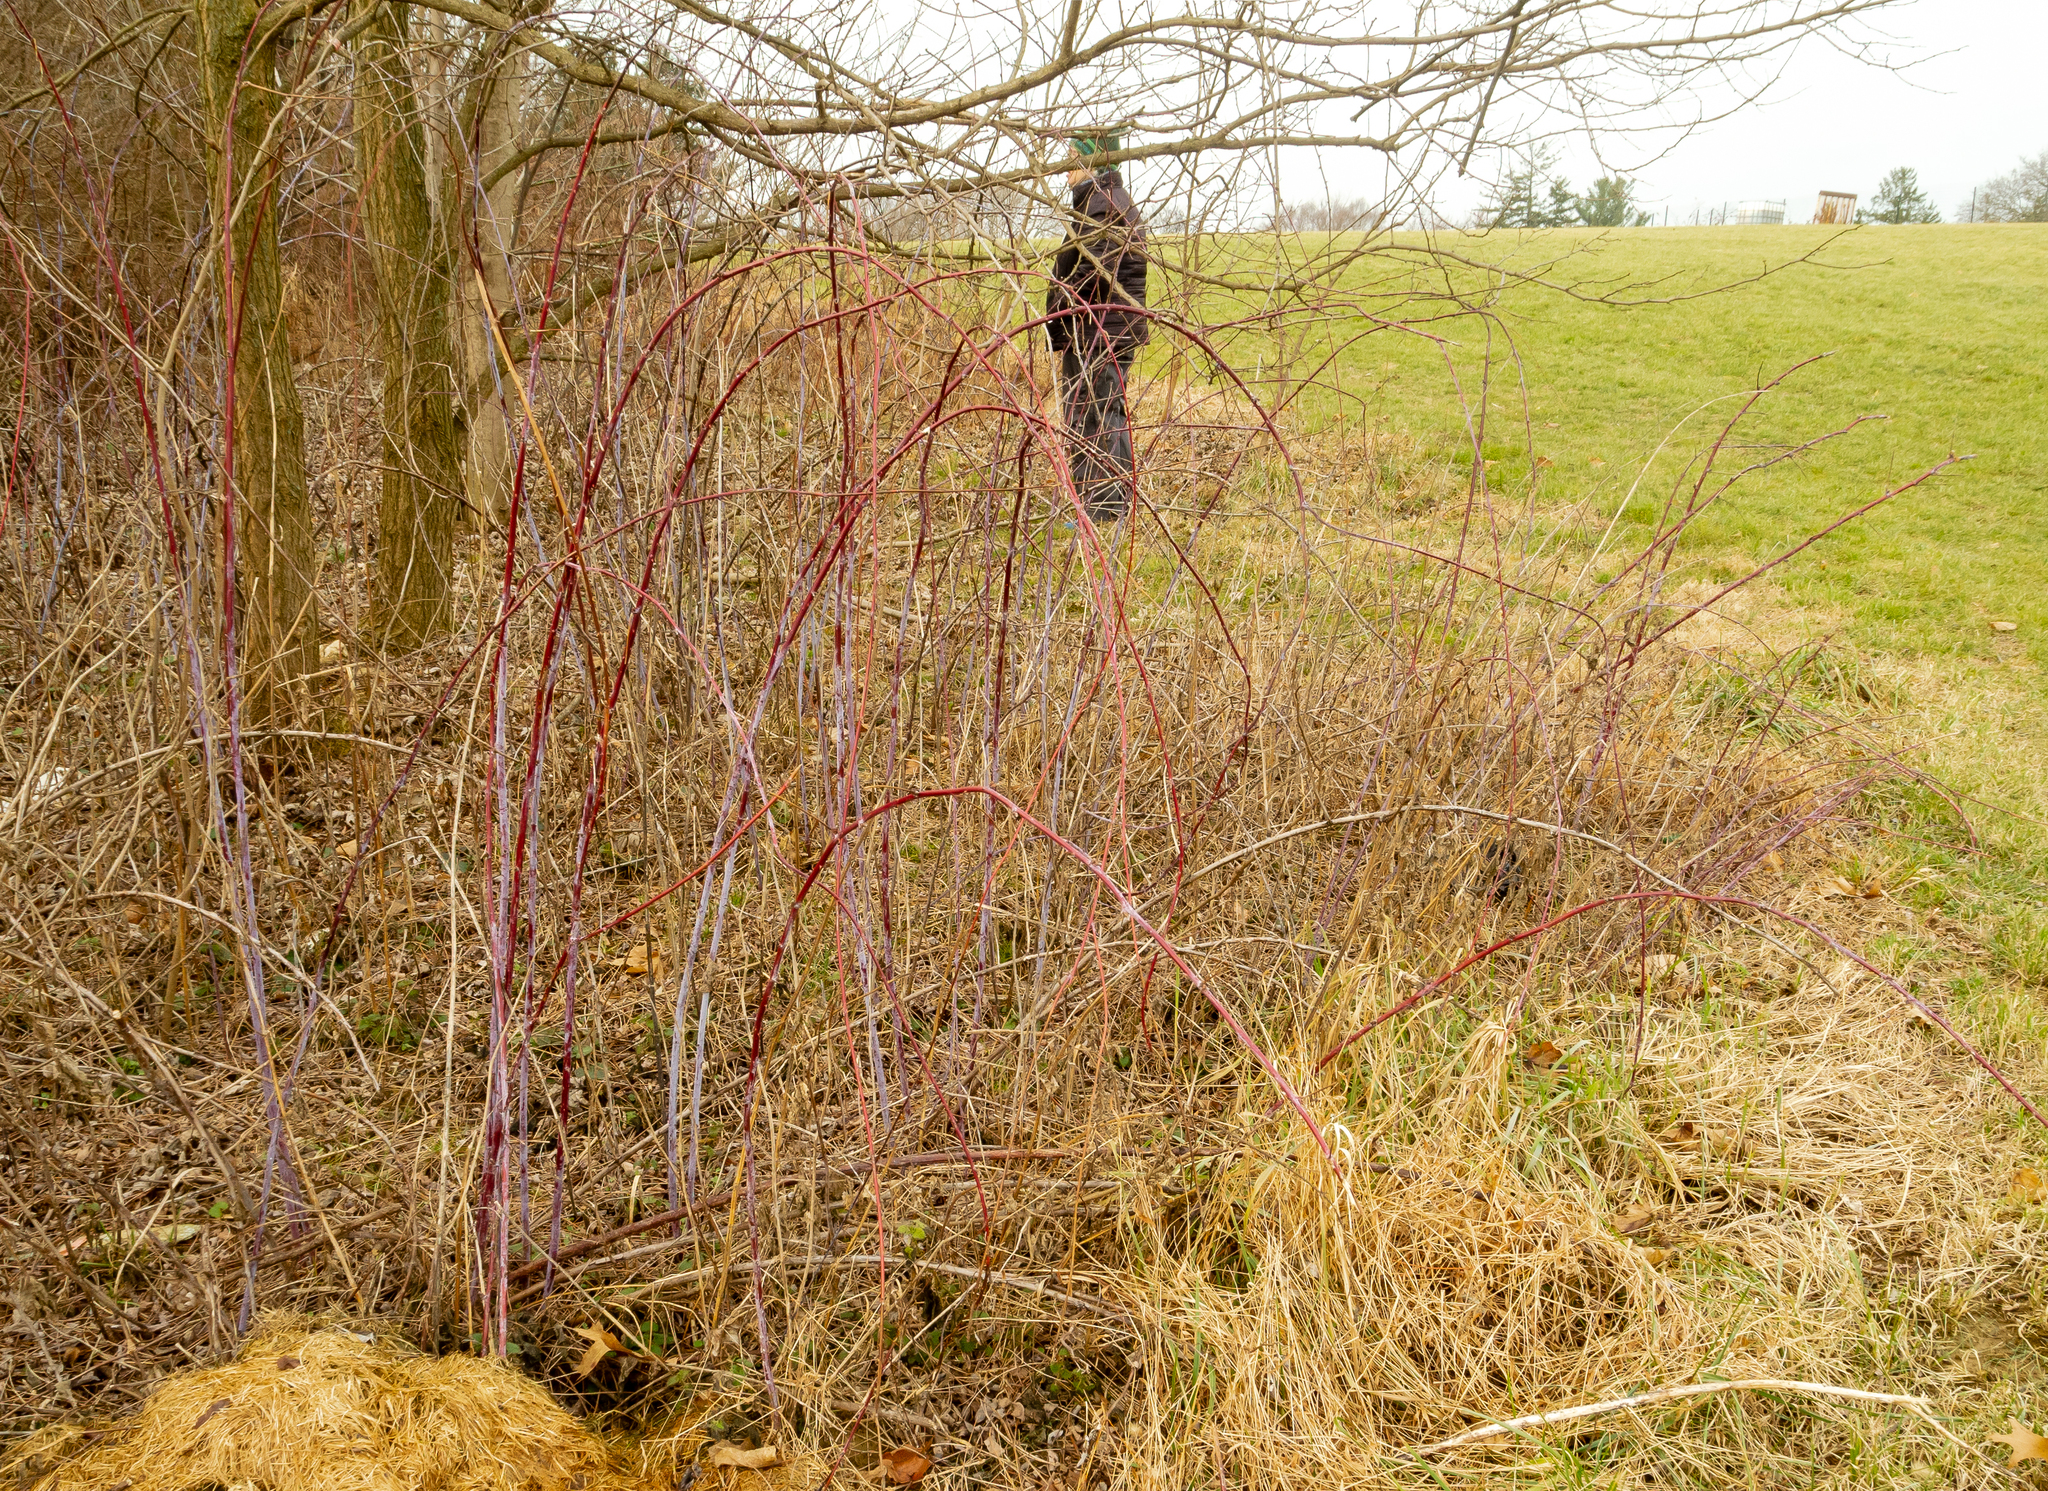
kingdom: Plantae
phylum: Tracheophyta
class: Magnoliopsida
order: Rosales
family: Rosaceae
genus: Rubus
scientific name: Rubus occidentalis
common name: Black raspberry
